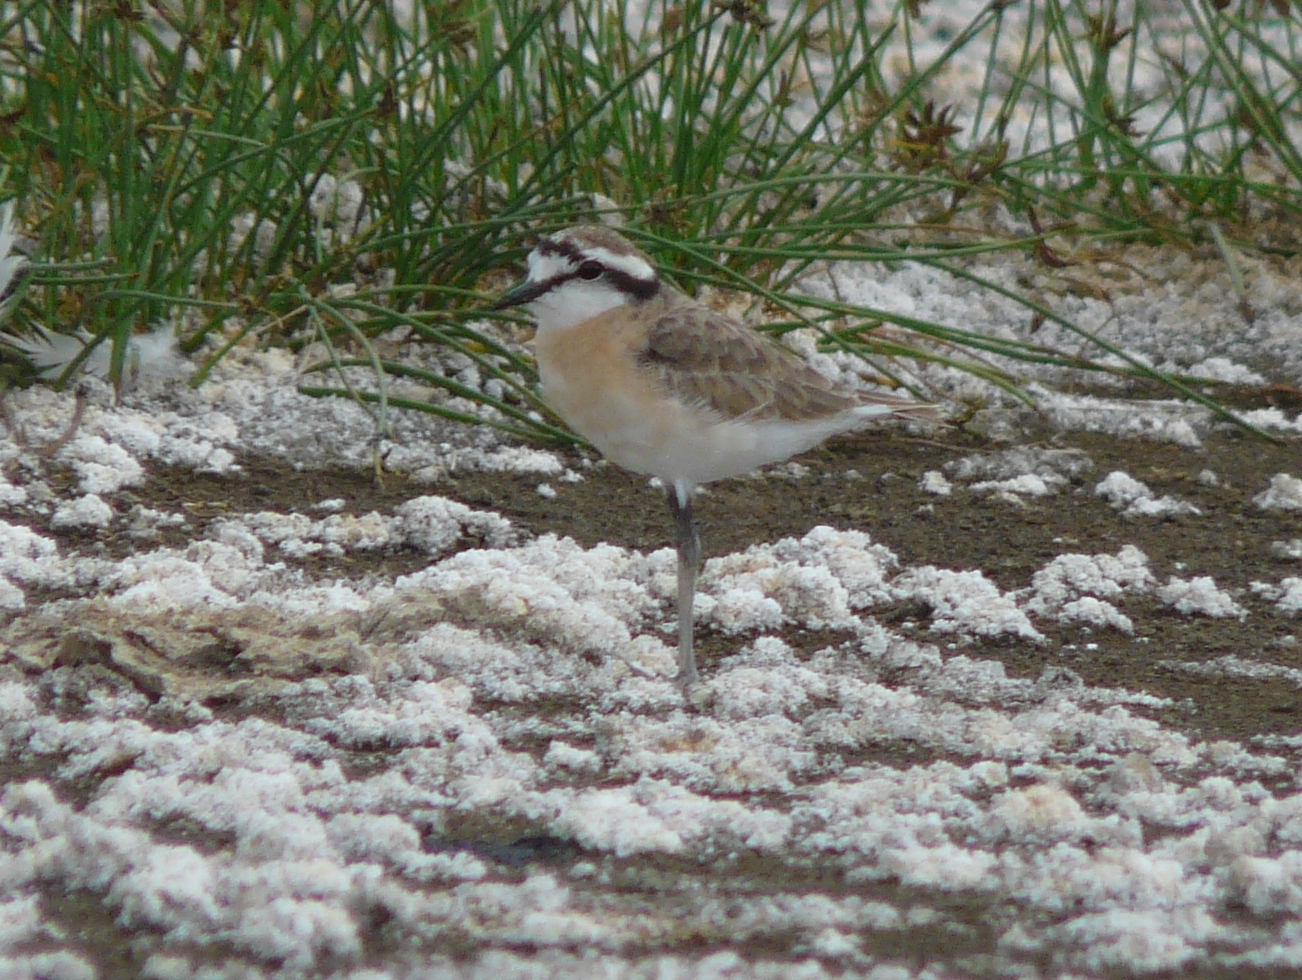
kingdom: Animalia
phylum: Chordata
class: Aves
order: Charadriiformes
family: Charadriidae
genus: Anarhynchus
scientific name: Anarhynchus
